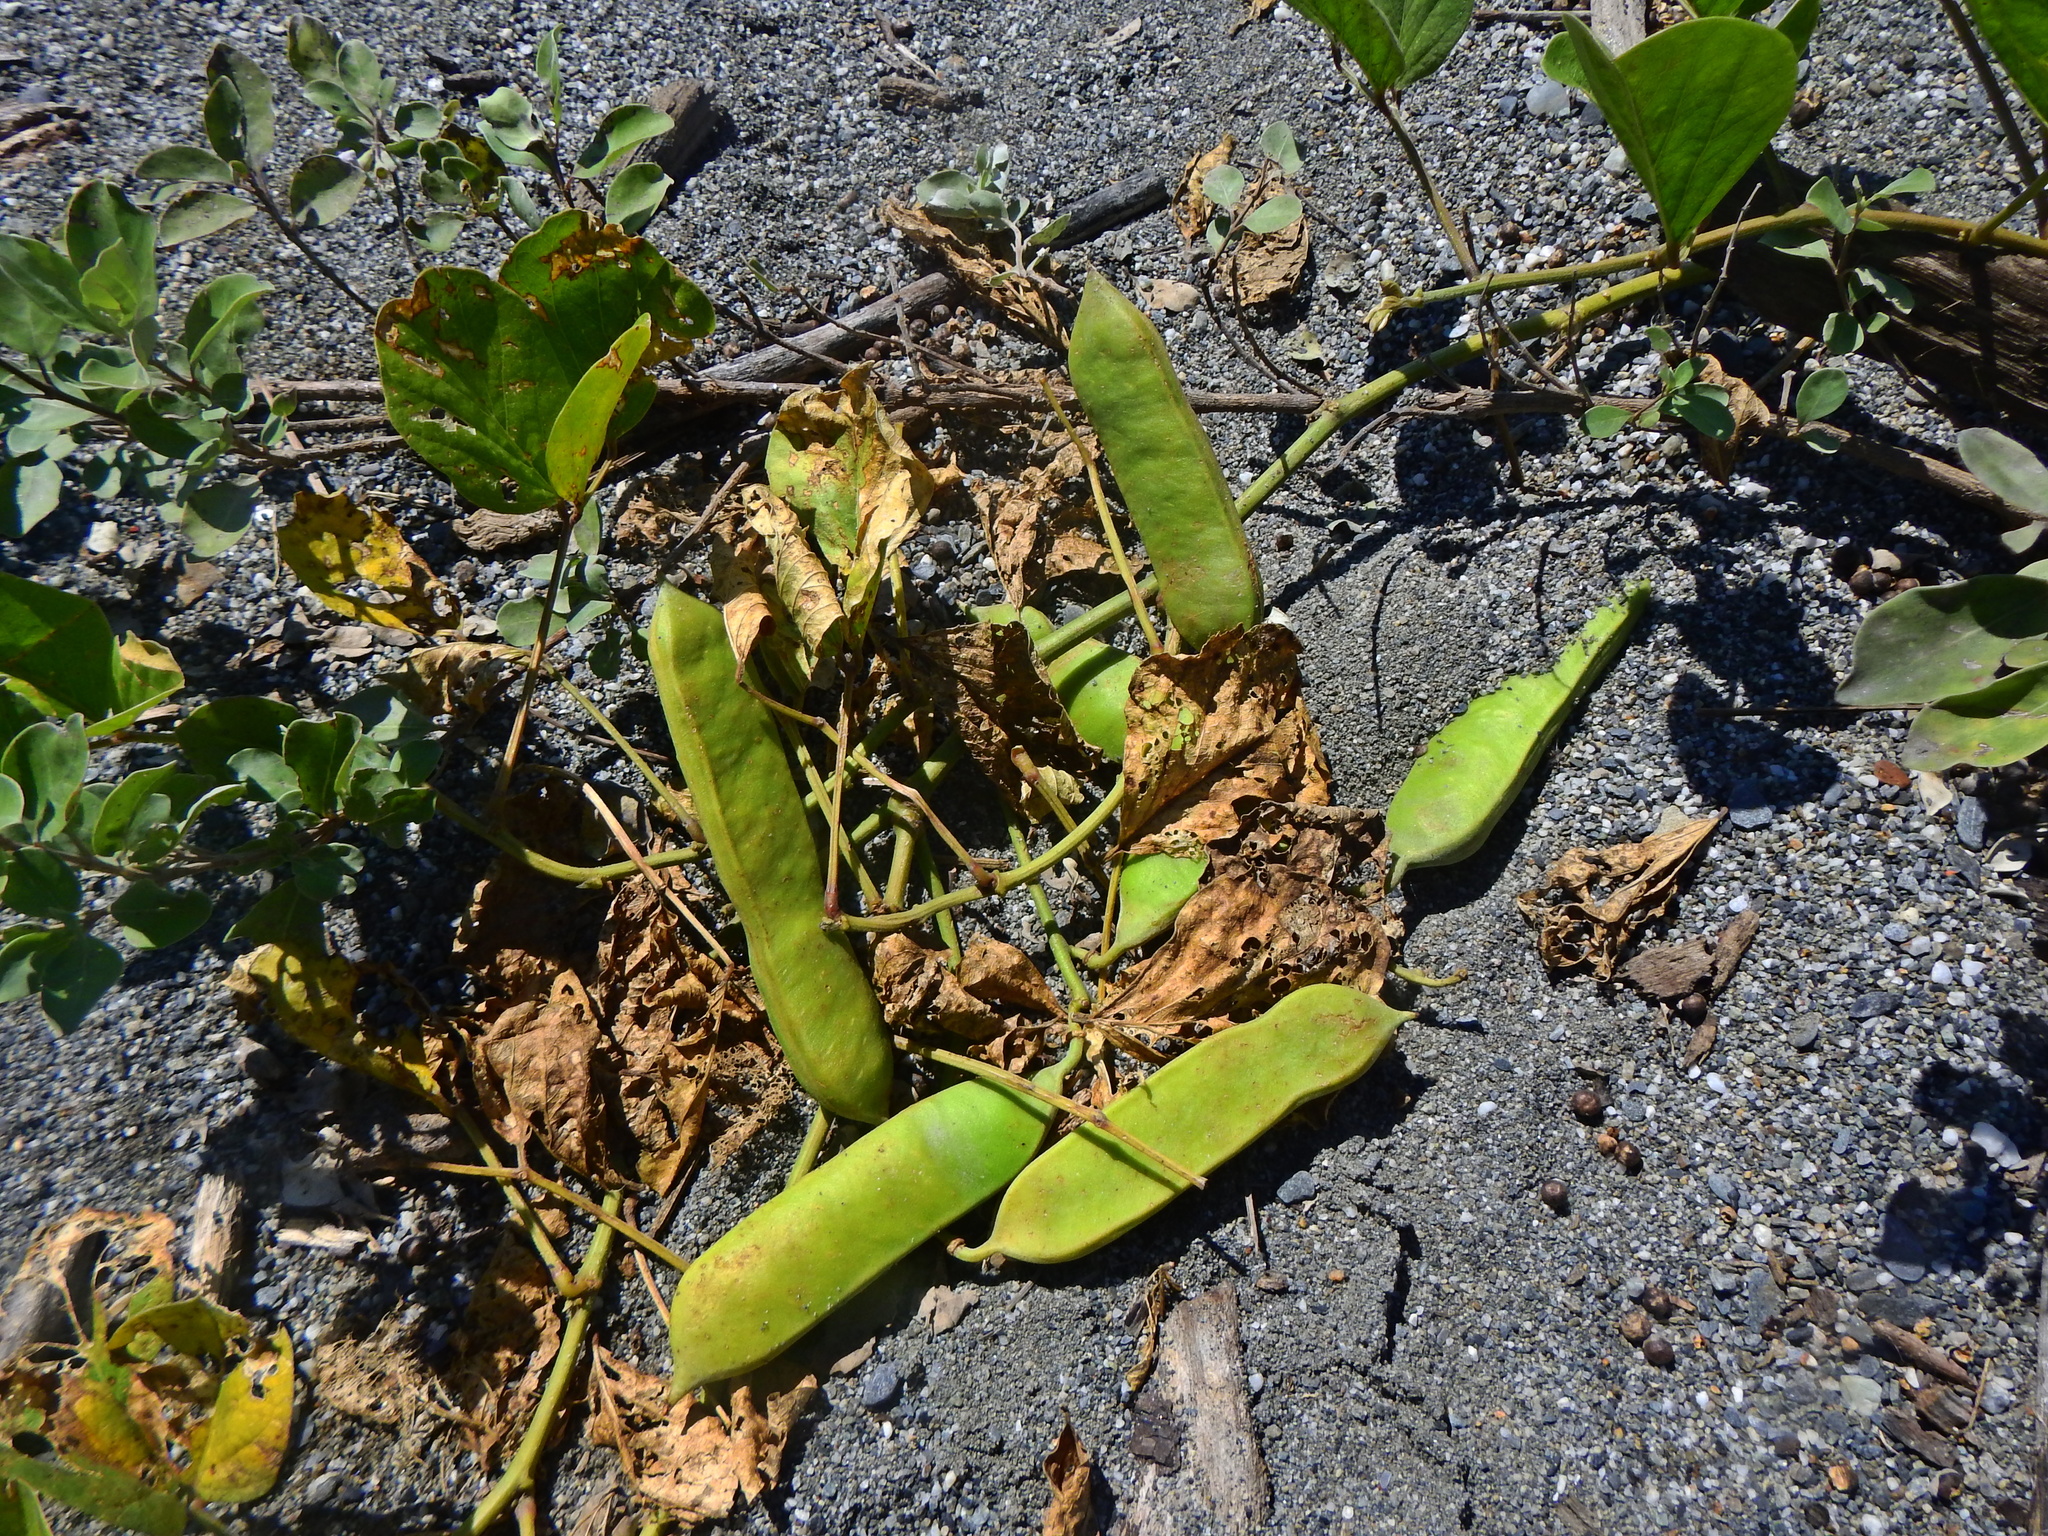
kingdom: Plantae
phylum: Tracheophyta
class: Magnoliopsida
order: Fabales
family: Fabaceae
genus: Canavalia
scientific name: Canavalia rosea
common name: Beach-bean
